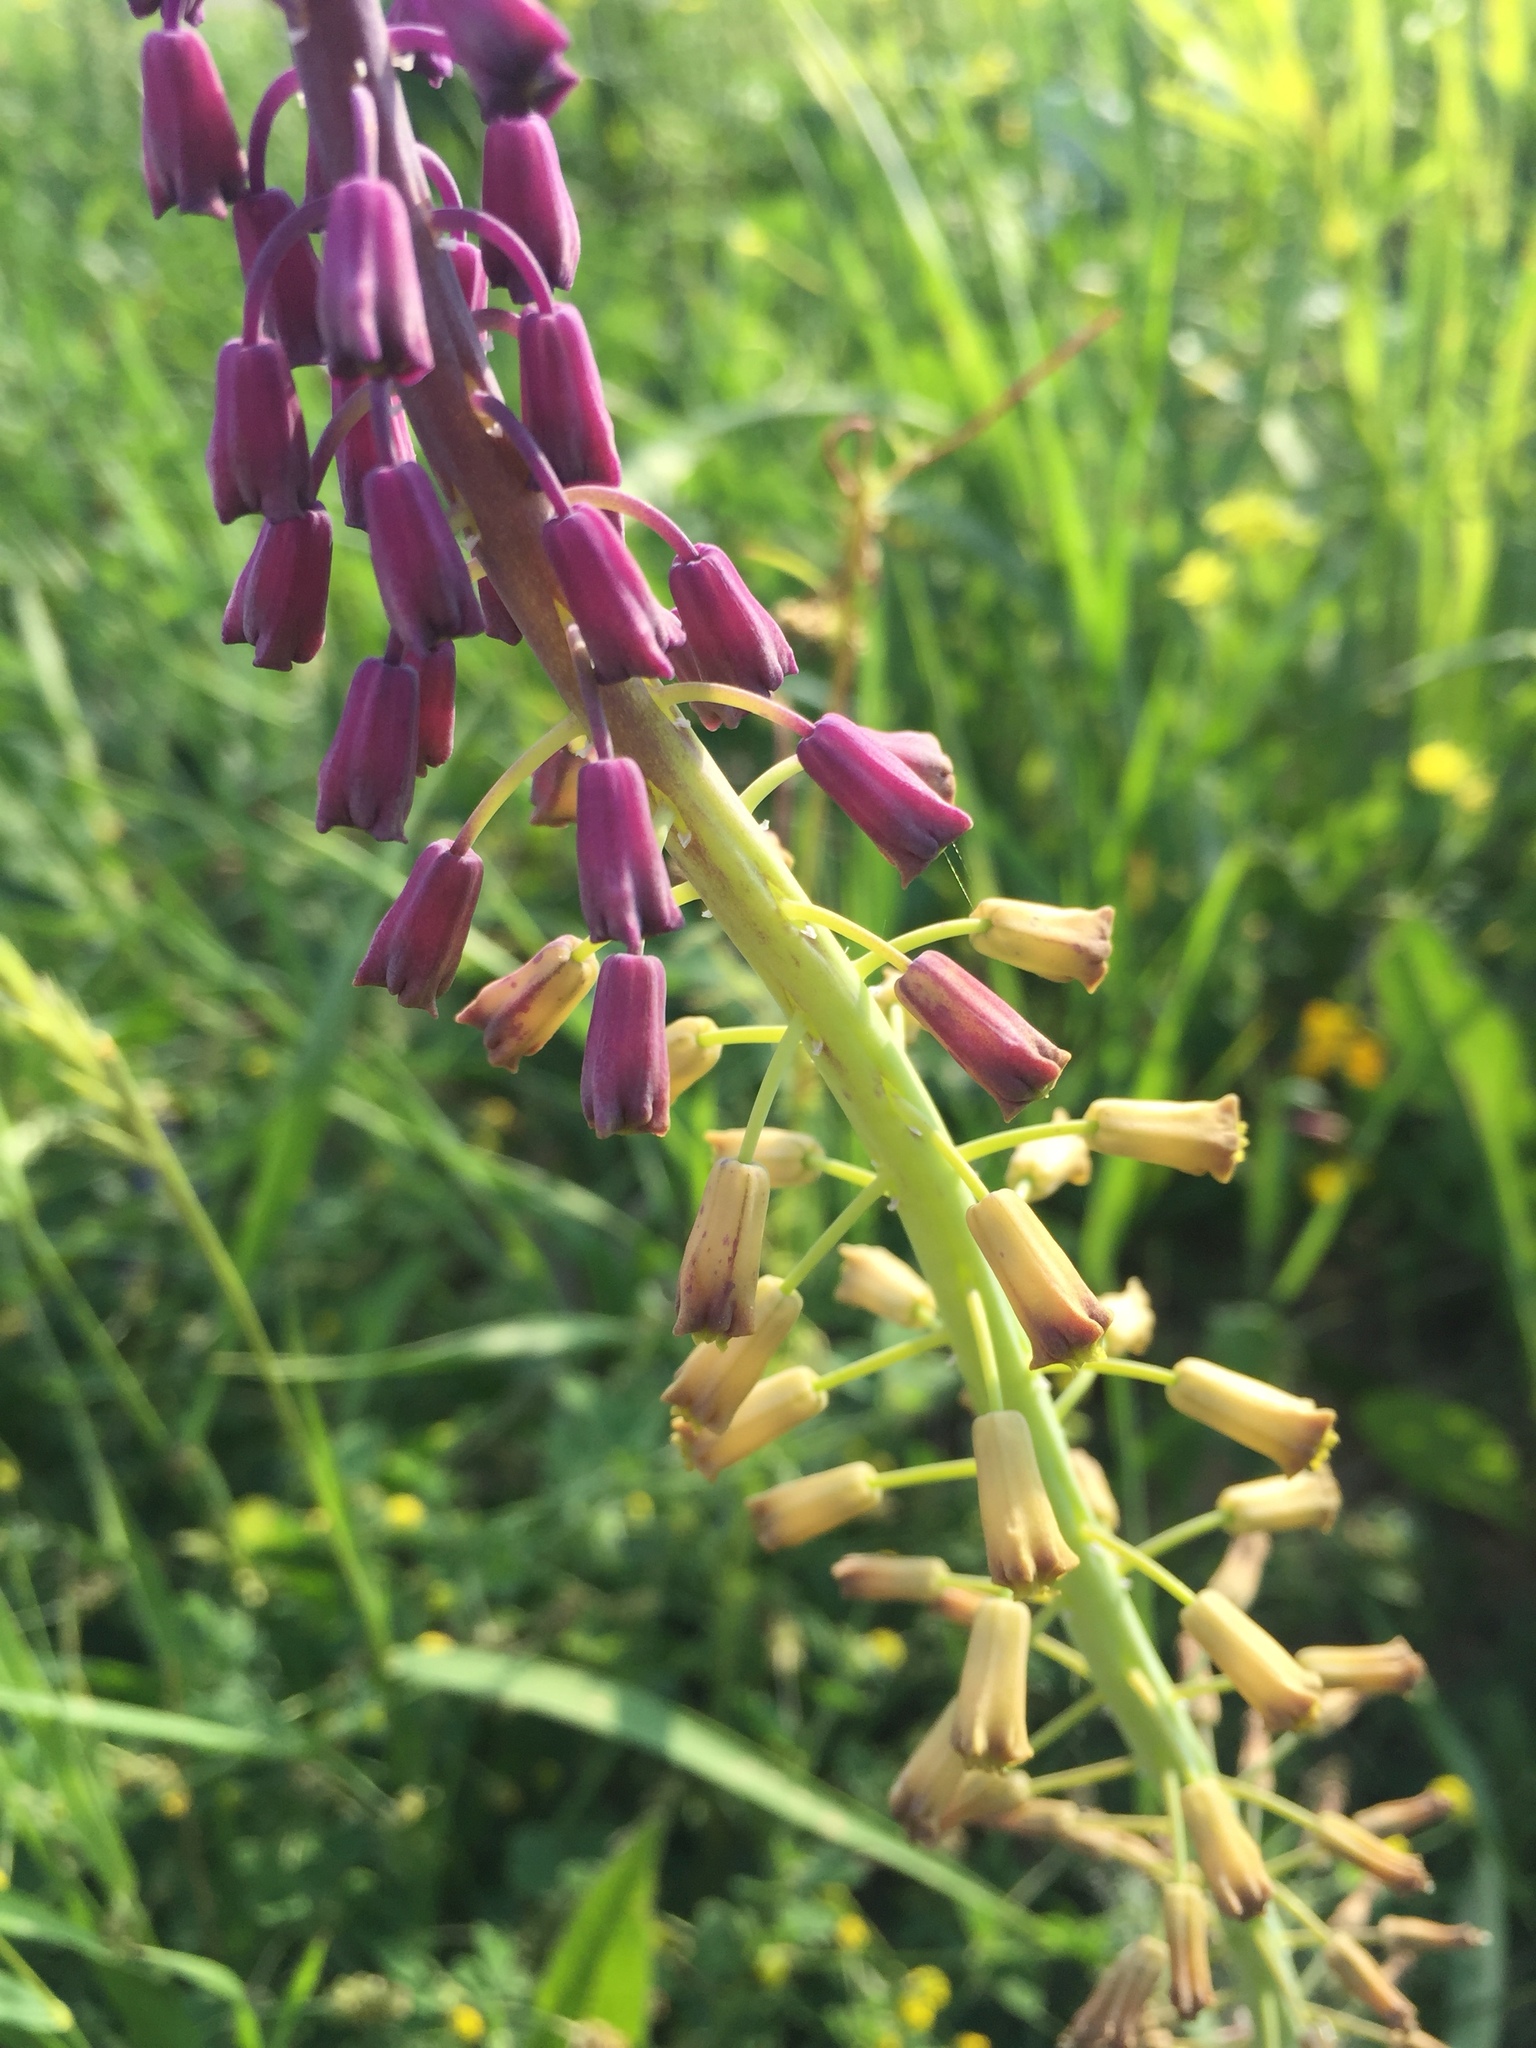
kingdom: Plantae
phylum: Tracheophyta
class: Liliopsida
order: Asparagales
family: Asparagaceae
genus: Muscari
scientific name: Muscari comosum
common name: Tassel hyacinth
